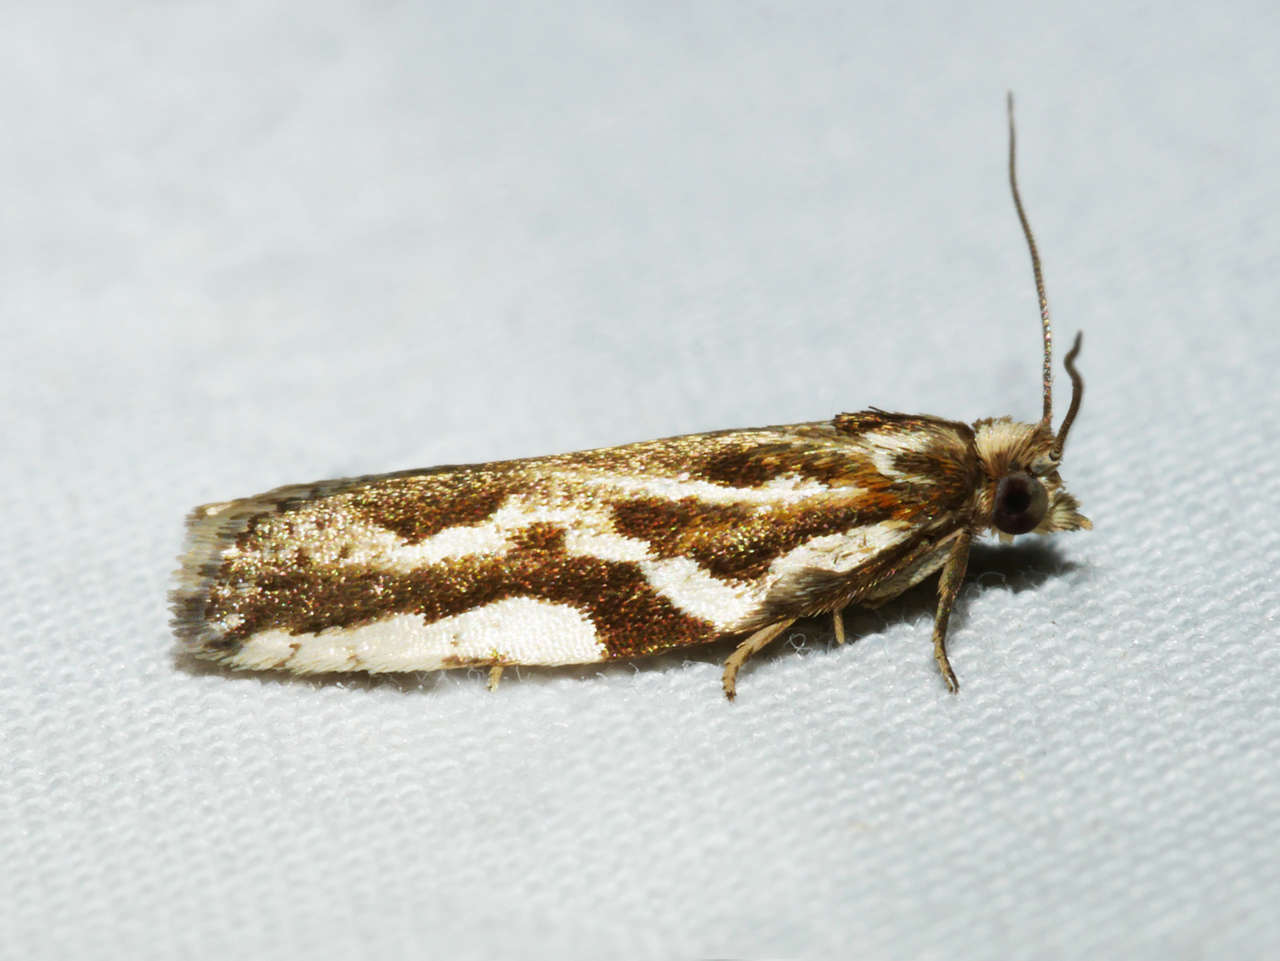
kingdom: Animalia
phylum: Arthropoda
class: Insecta
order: Lepidoptera
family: Tortricidae
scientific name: Tortricidae
